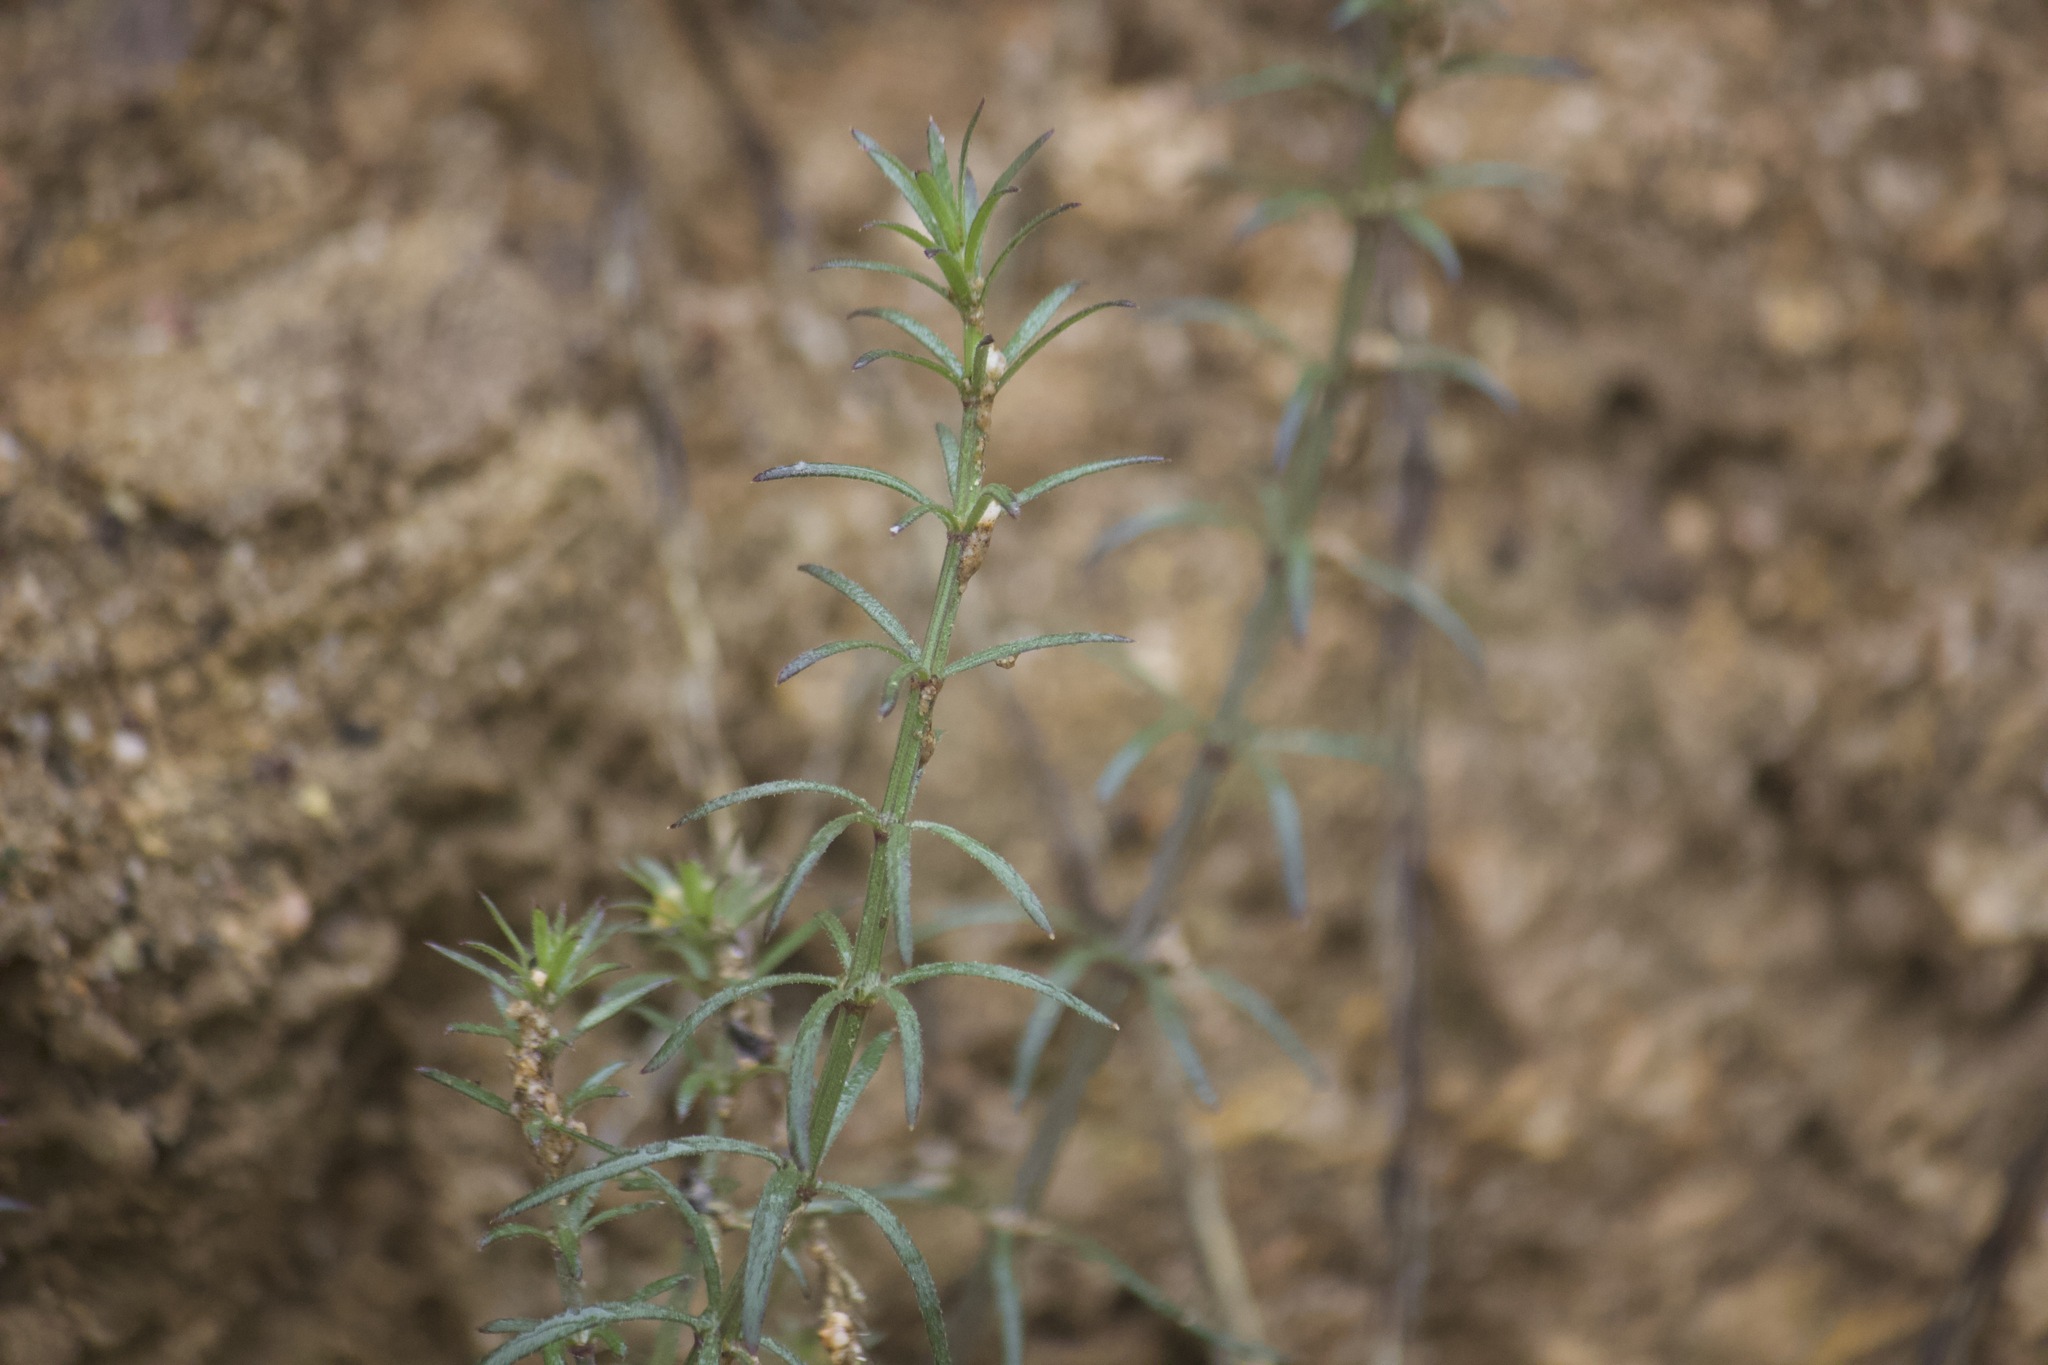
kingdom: Plantae
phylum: Tracheophyta
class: Magnoliopsida
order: Gentianales
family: Rubiaceae
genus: Galium
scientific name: Galium angustifolium
